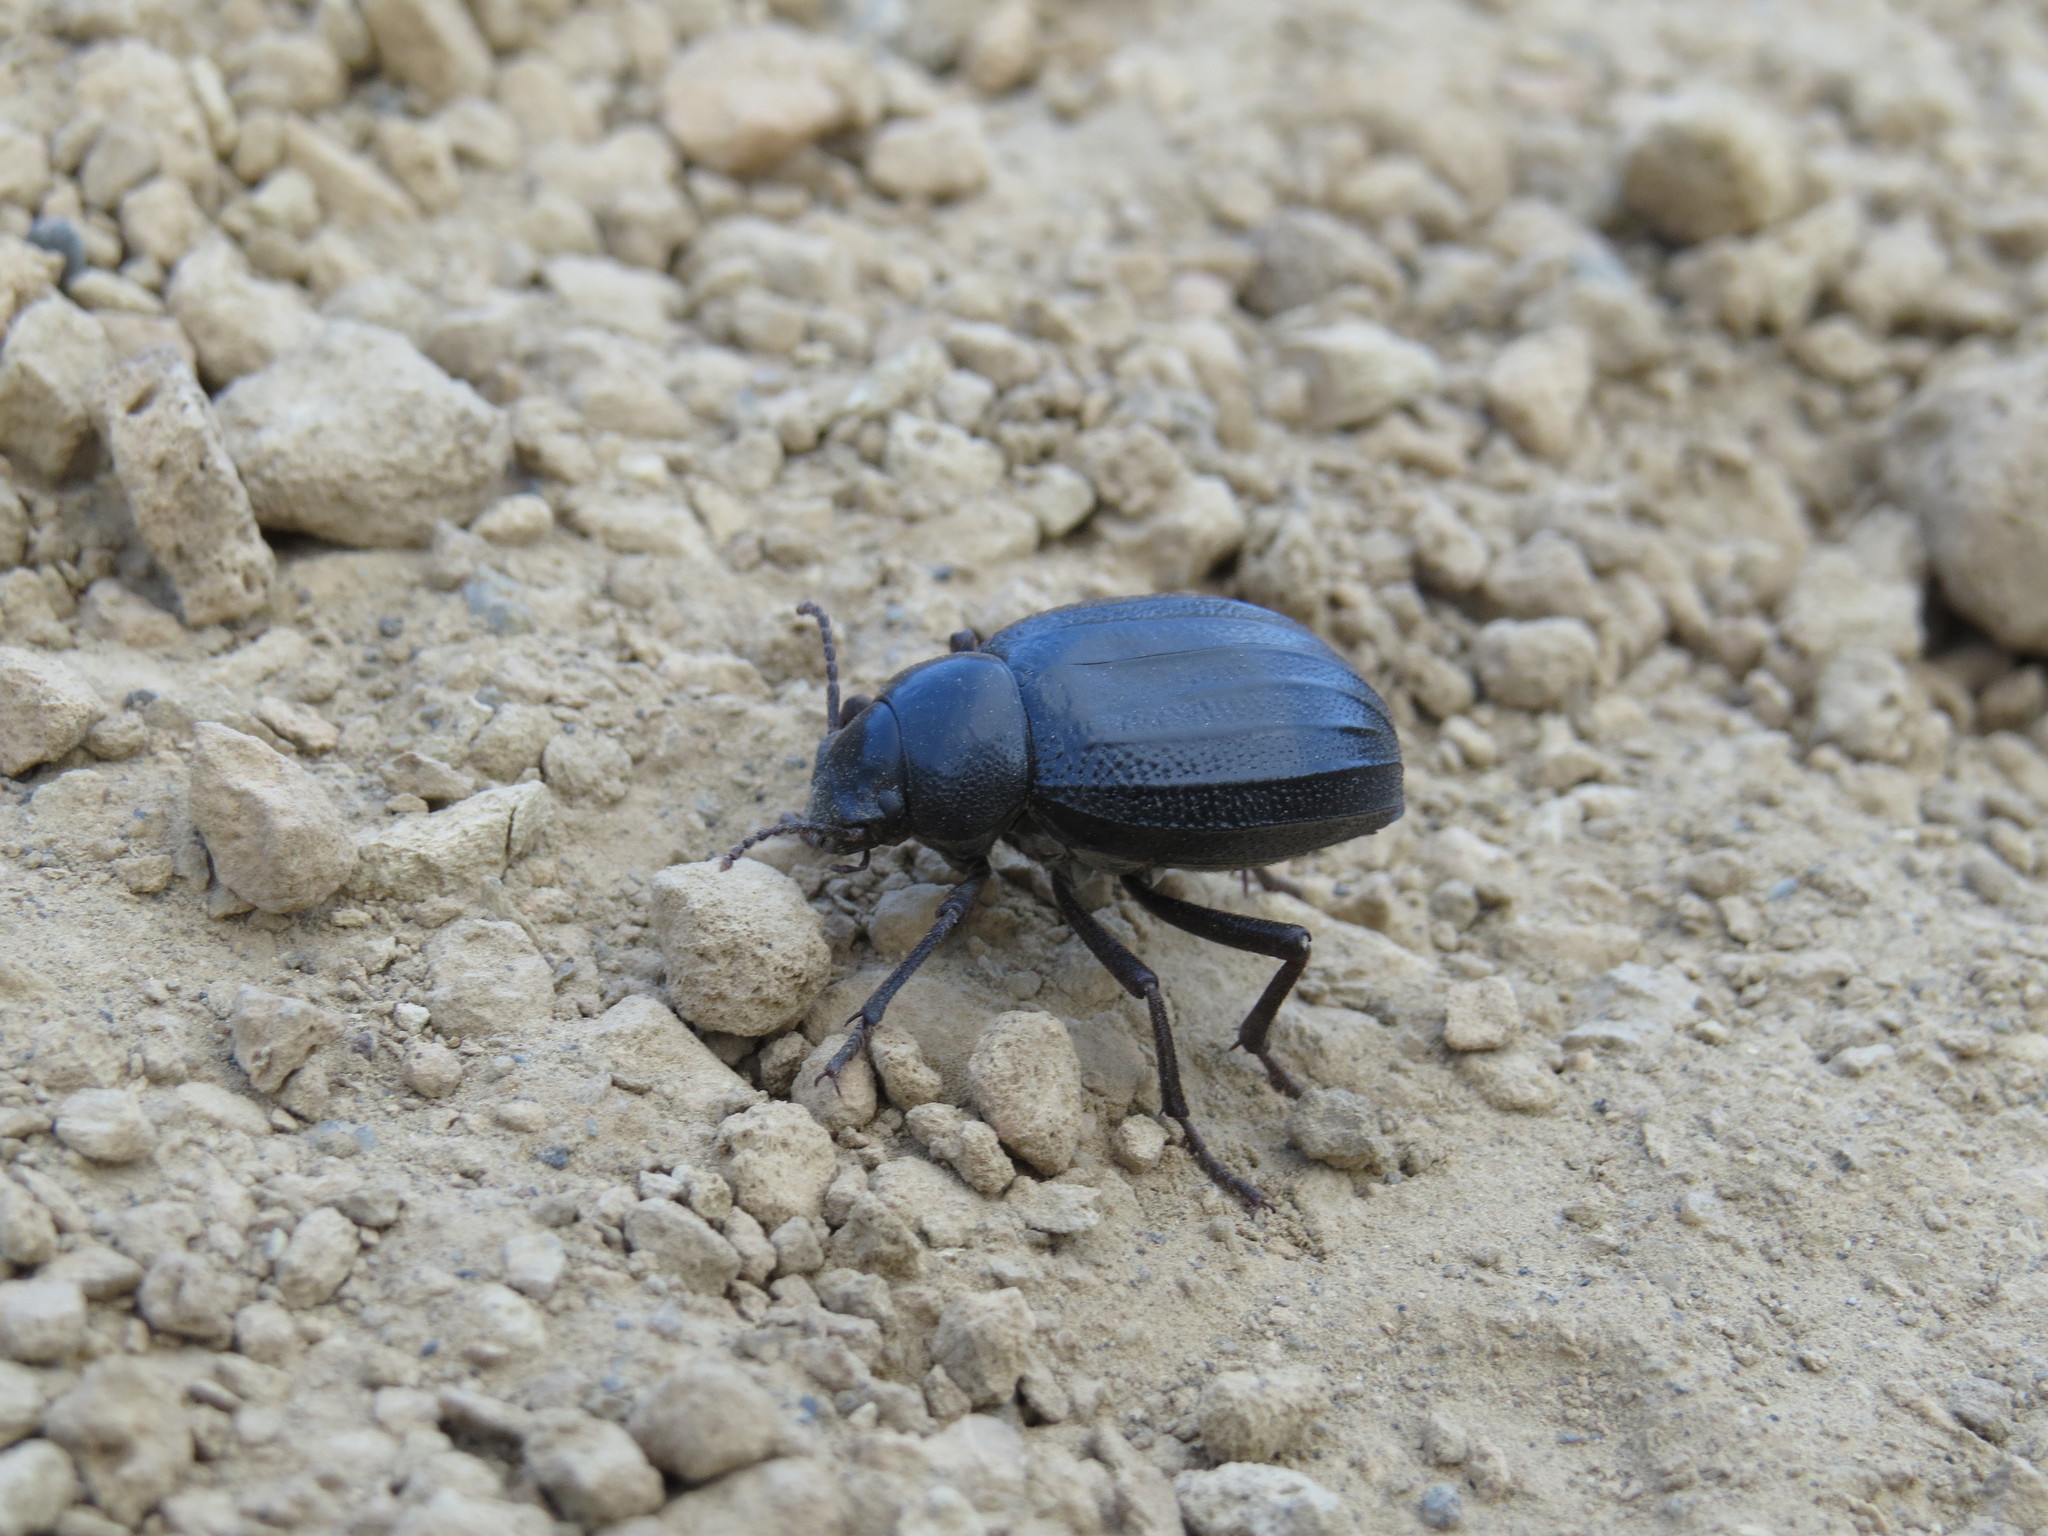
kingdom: Animalia
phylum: Arthropoda
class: Insecta
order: Coleoptera
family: Tenebrionidae
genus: Pimelia
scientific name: Pimelia ascendens
